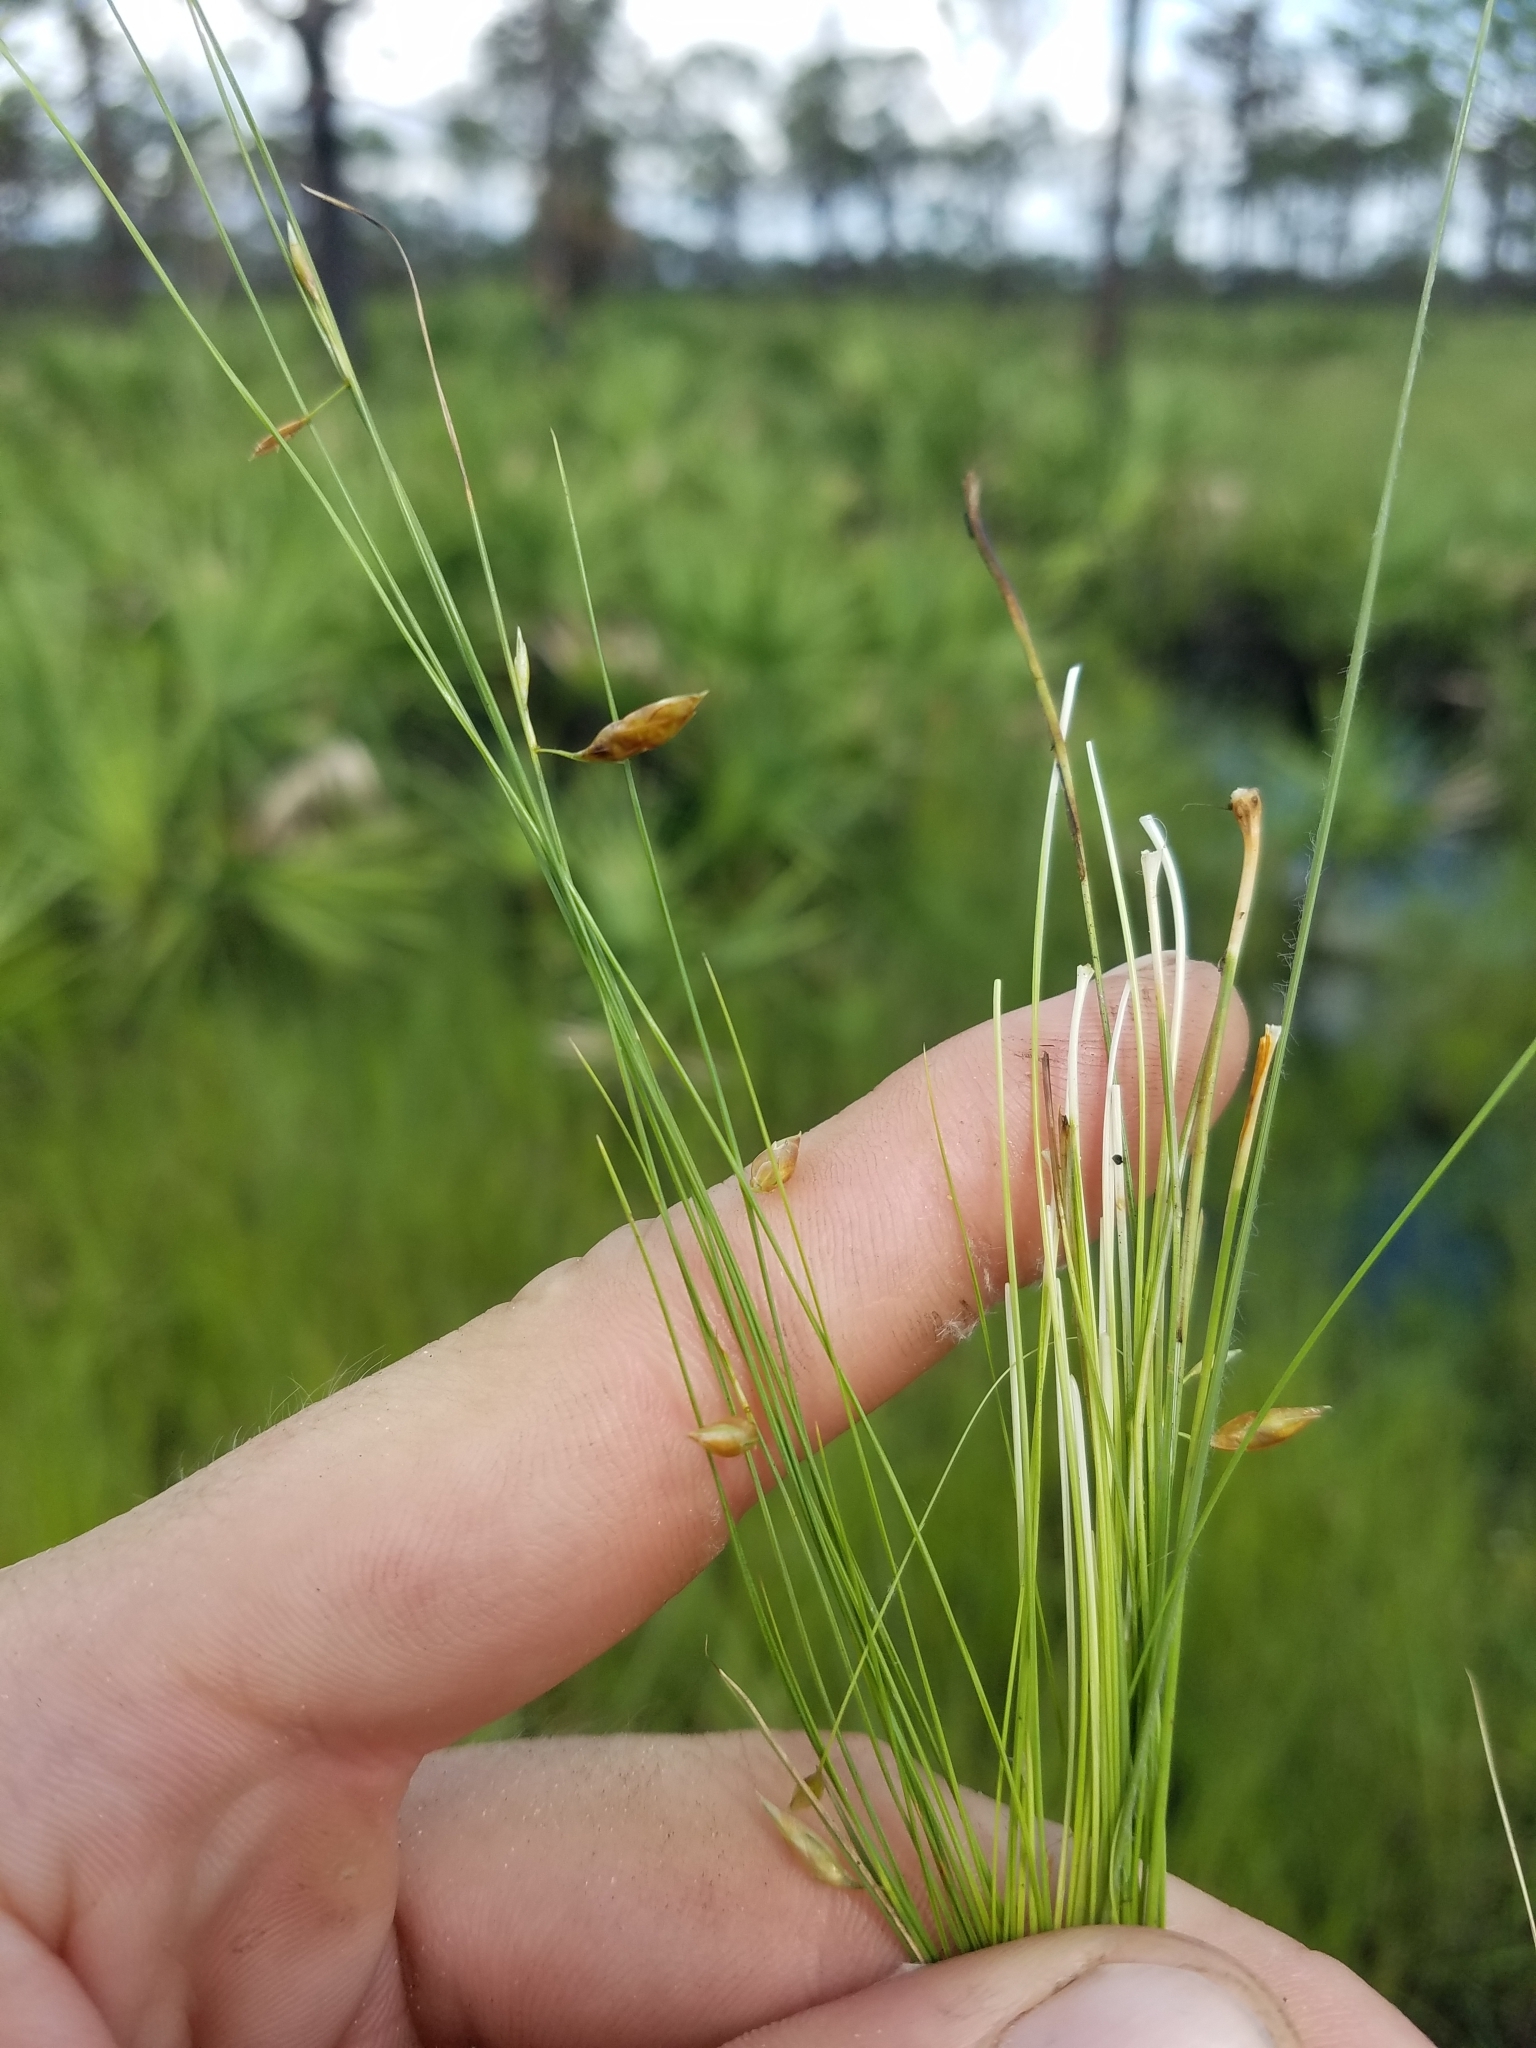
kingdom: Plantae
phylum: Tracheophyta
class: Liliopsida
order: Poales
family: Cyperaceae
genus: Rhynchospora
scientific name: Rhynchospora galeana
